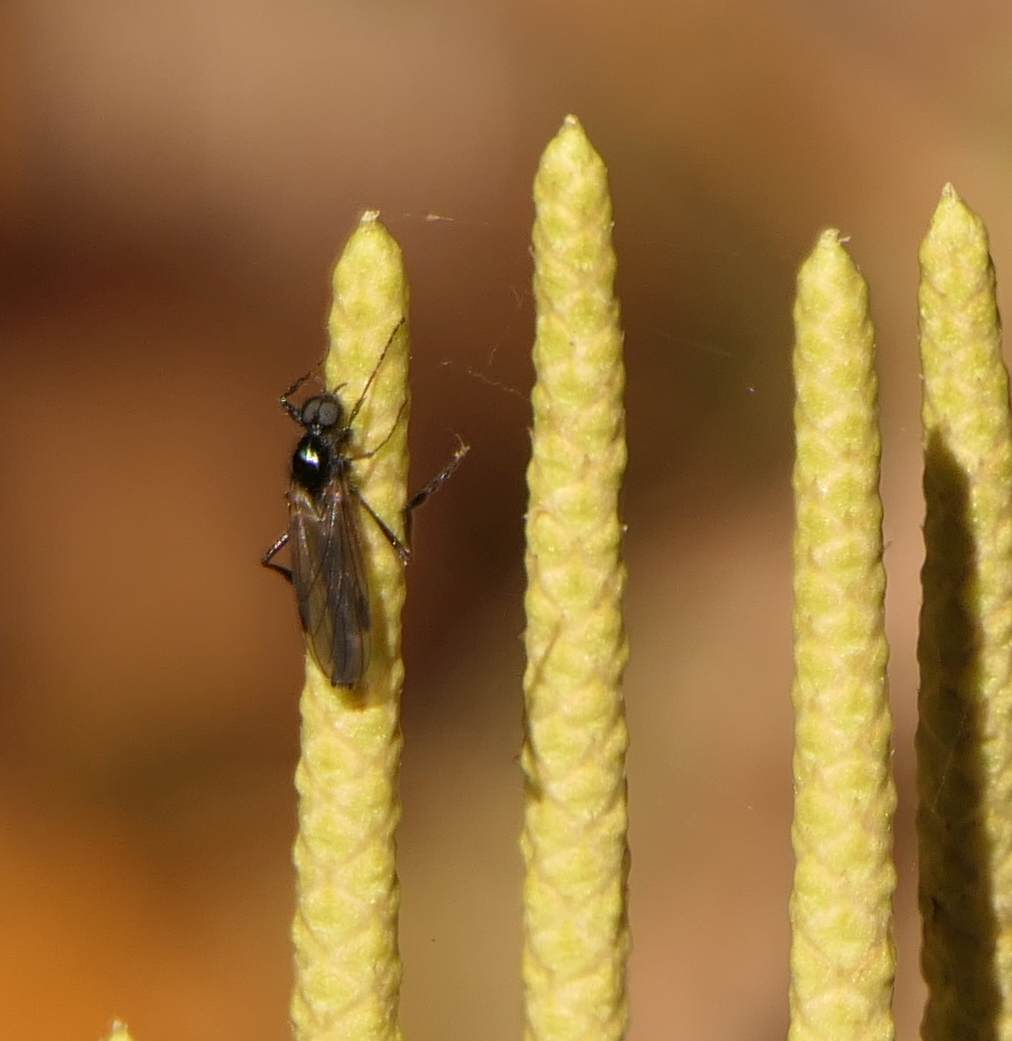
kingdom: Animalia
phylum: Arthropoda
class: Insecta
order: Diptera
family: Bibionidae
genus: Bibio
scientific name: Bibio slossonae
